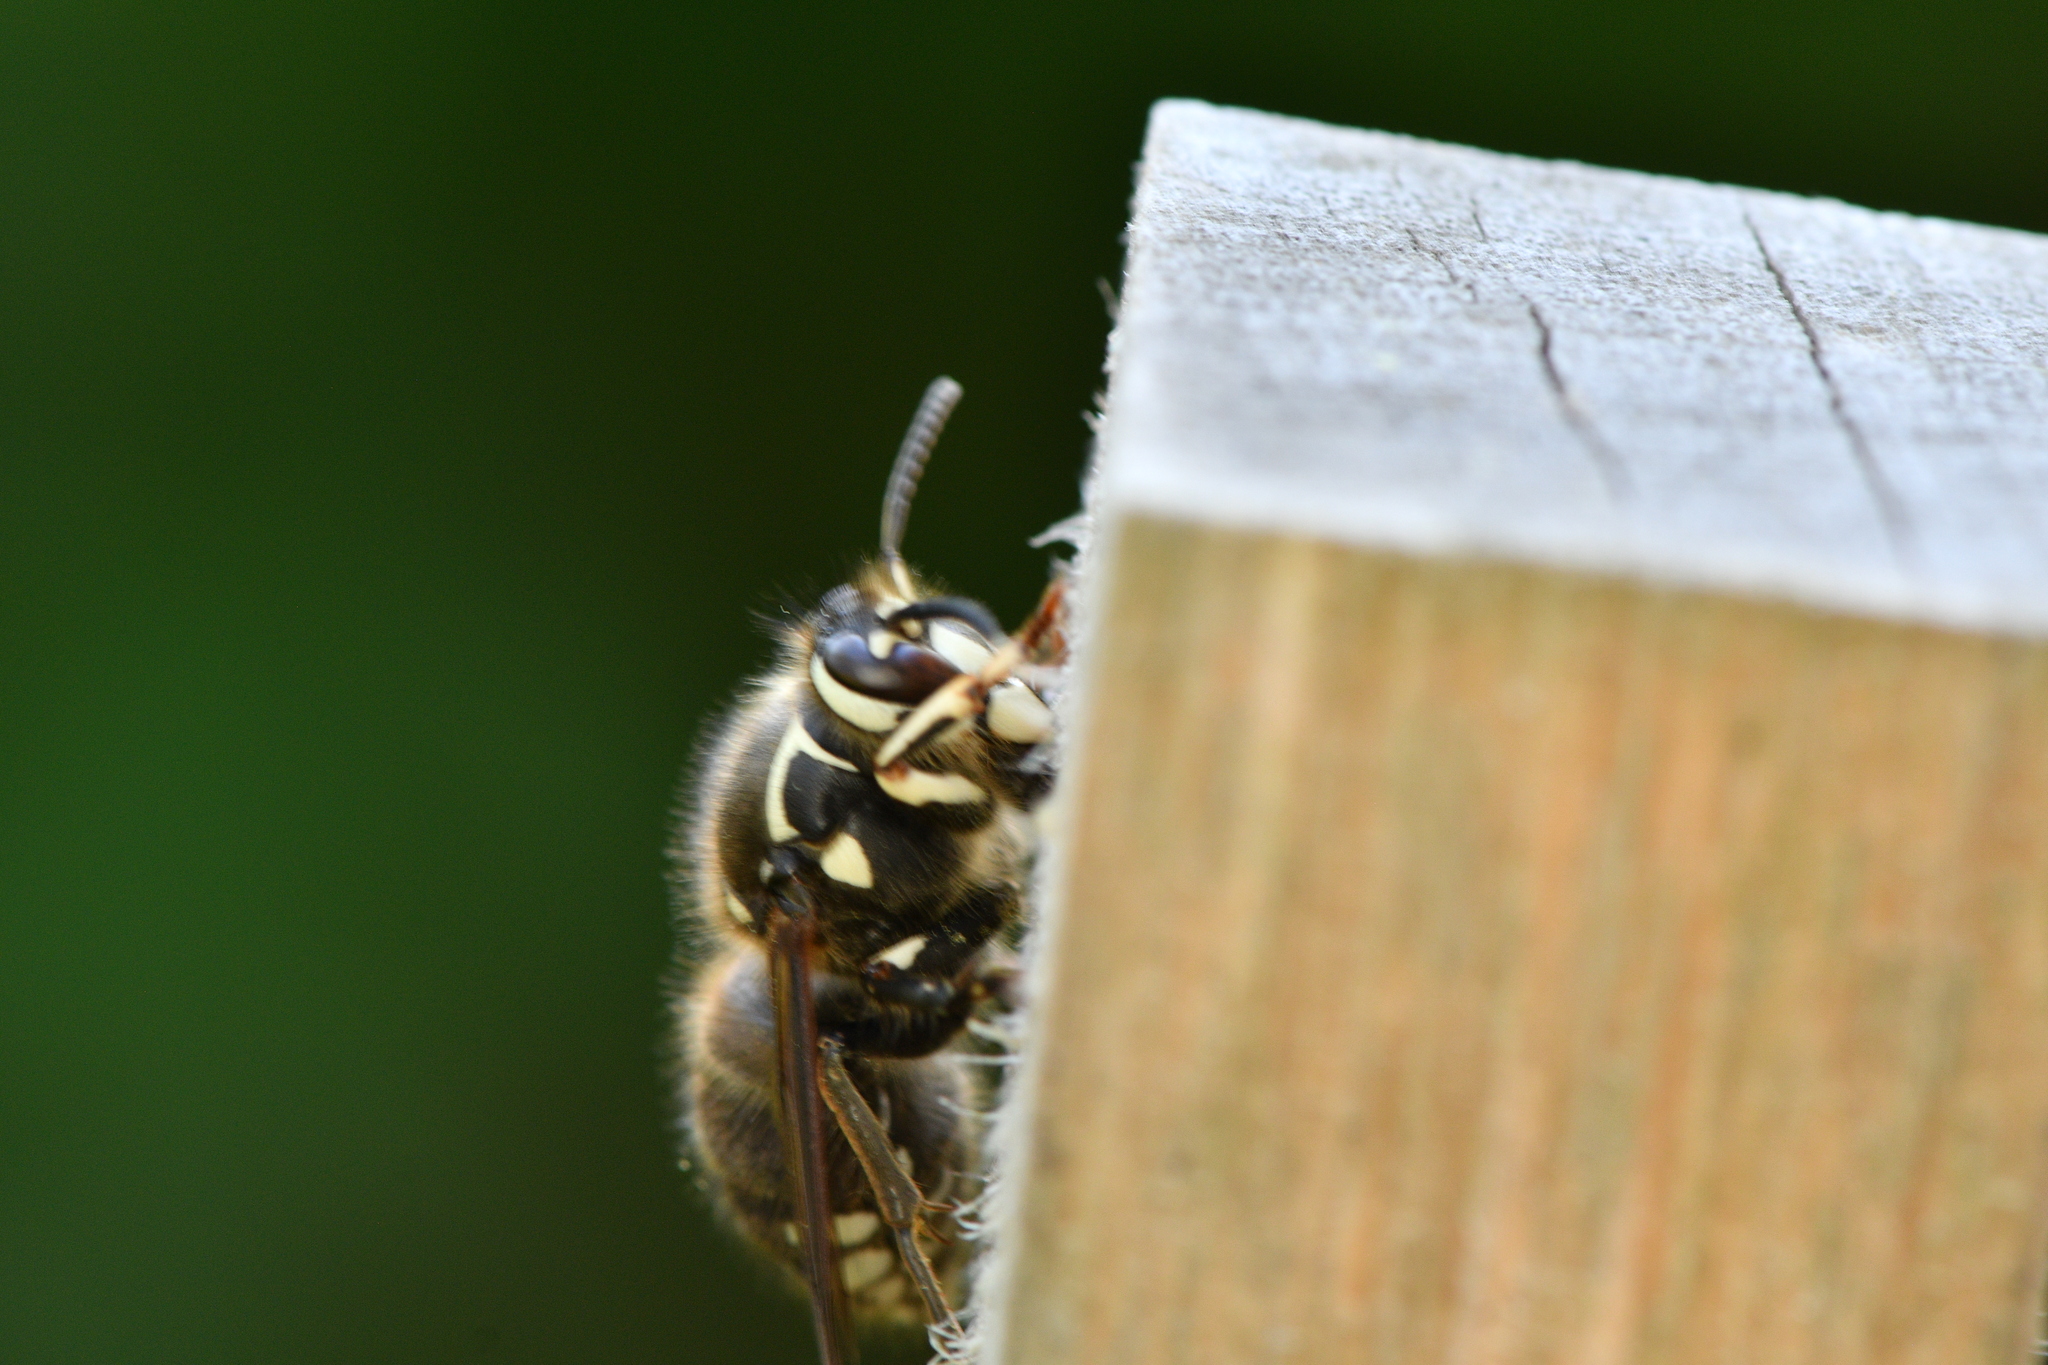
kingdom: Animalia
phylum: Arthropoda
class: Insecta
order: Hymenoptera
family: Vespidae
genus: Dolichovespula
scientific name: Dolichovespula maculata
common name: Bald-faced hornet
